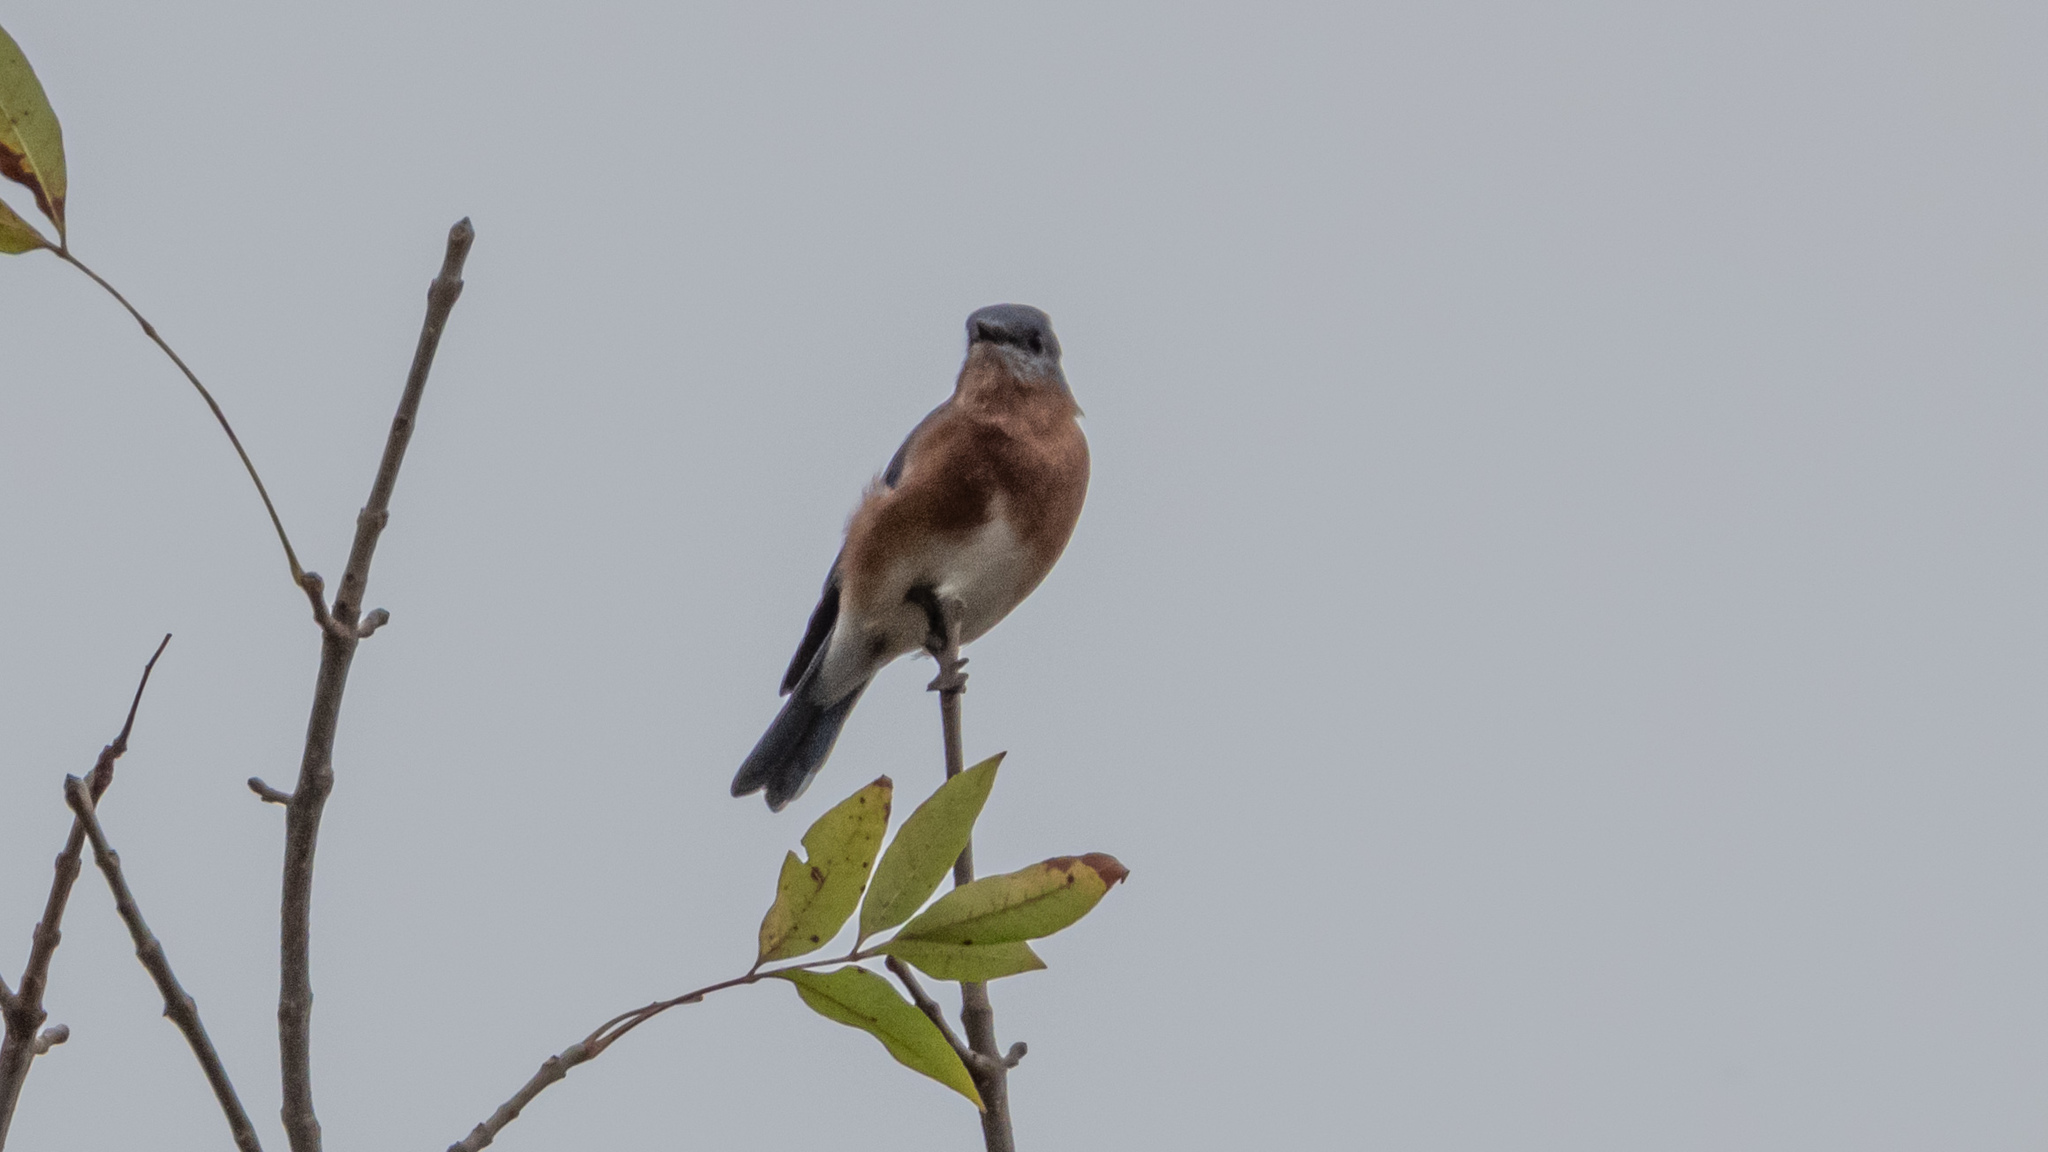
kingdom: Animalia
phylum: Chordata
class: Aves
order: Passeriformes
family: Turdidae
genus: Sialia
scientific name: Sialia sialis
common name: Eastern bluebird
